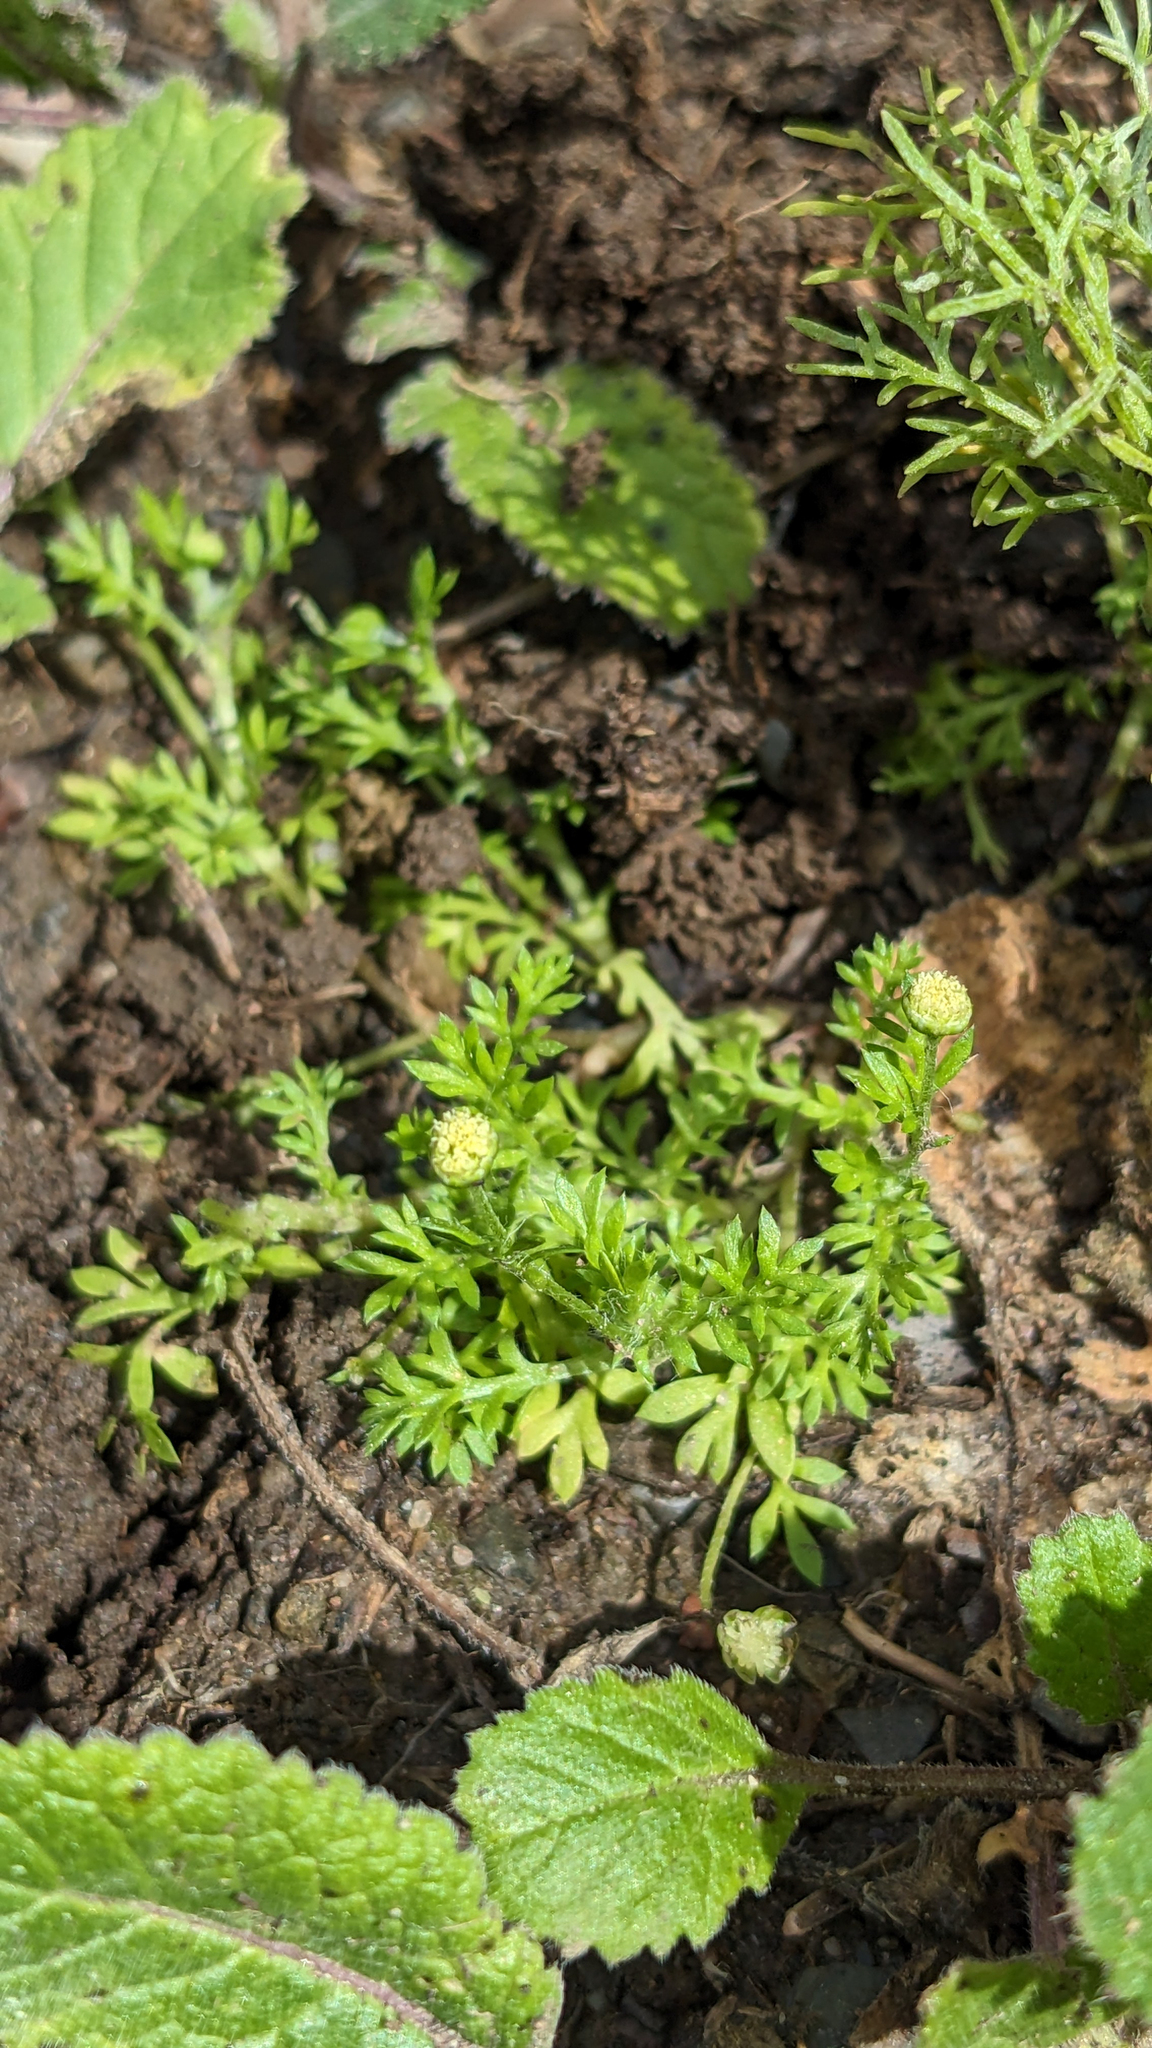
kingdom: Plantae
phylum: Tracheophyta
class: Magnoliopsida
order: Asterales
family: Asteraceae
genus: Cotula
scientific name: Cotula australis
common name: Australian waterbuttons
